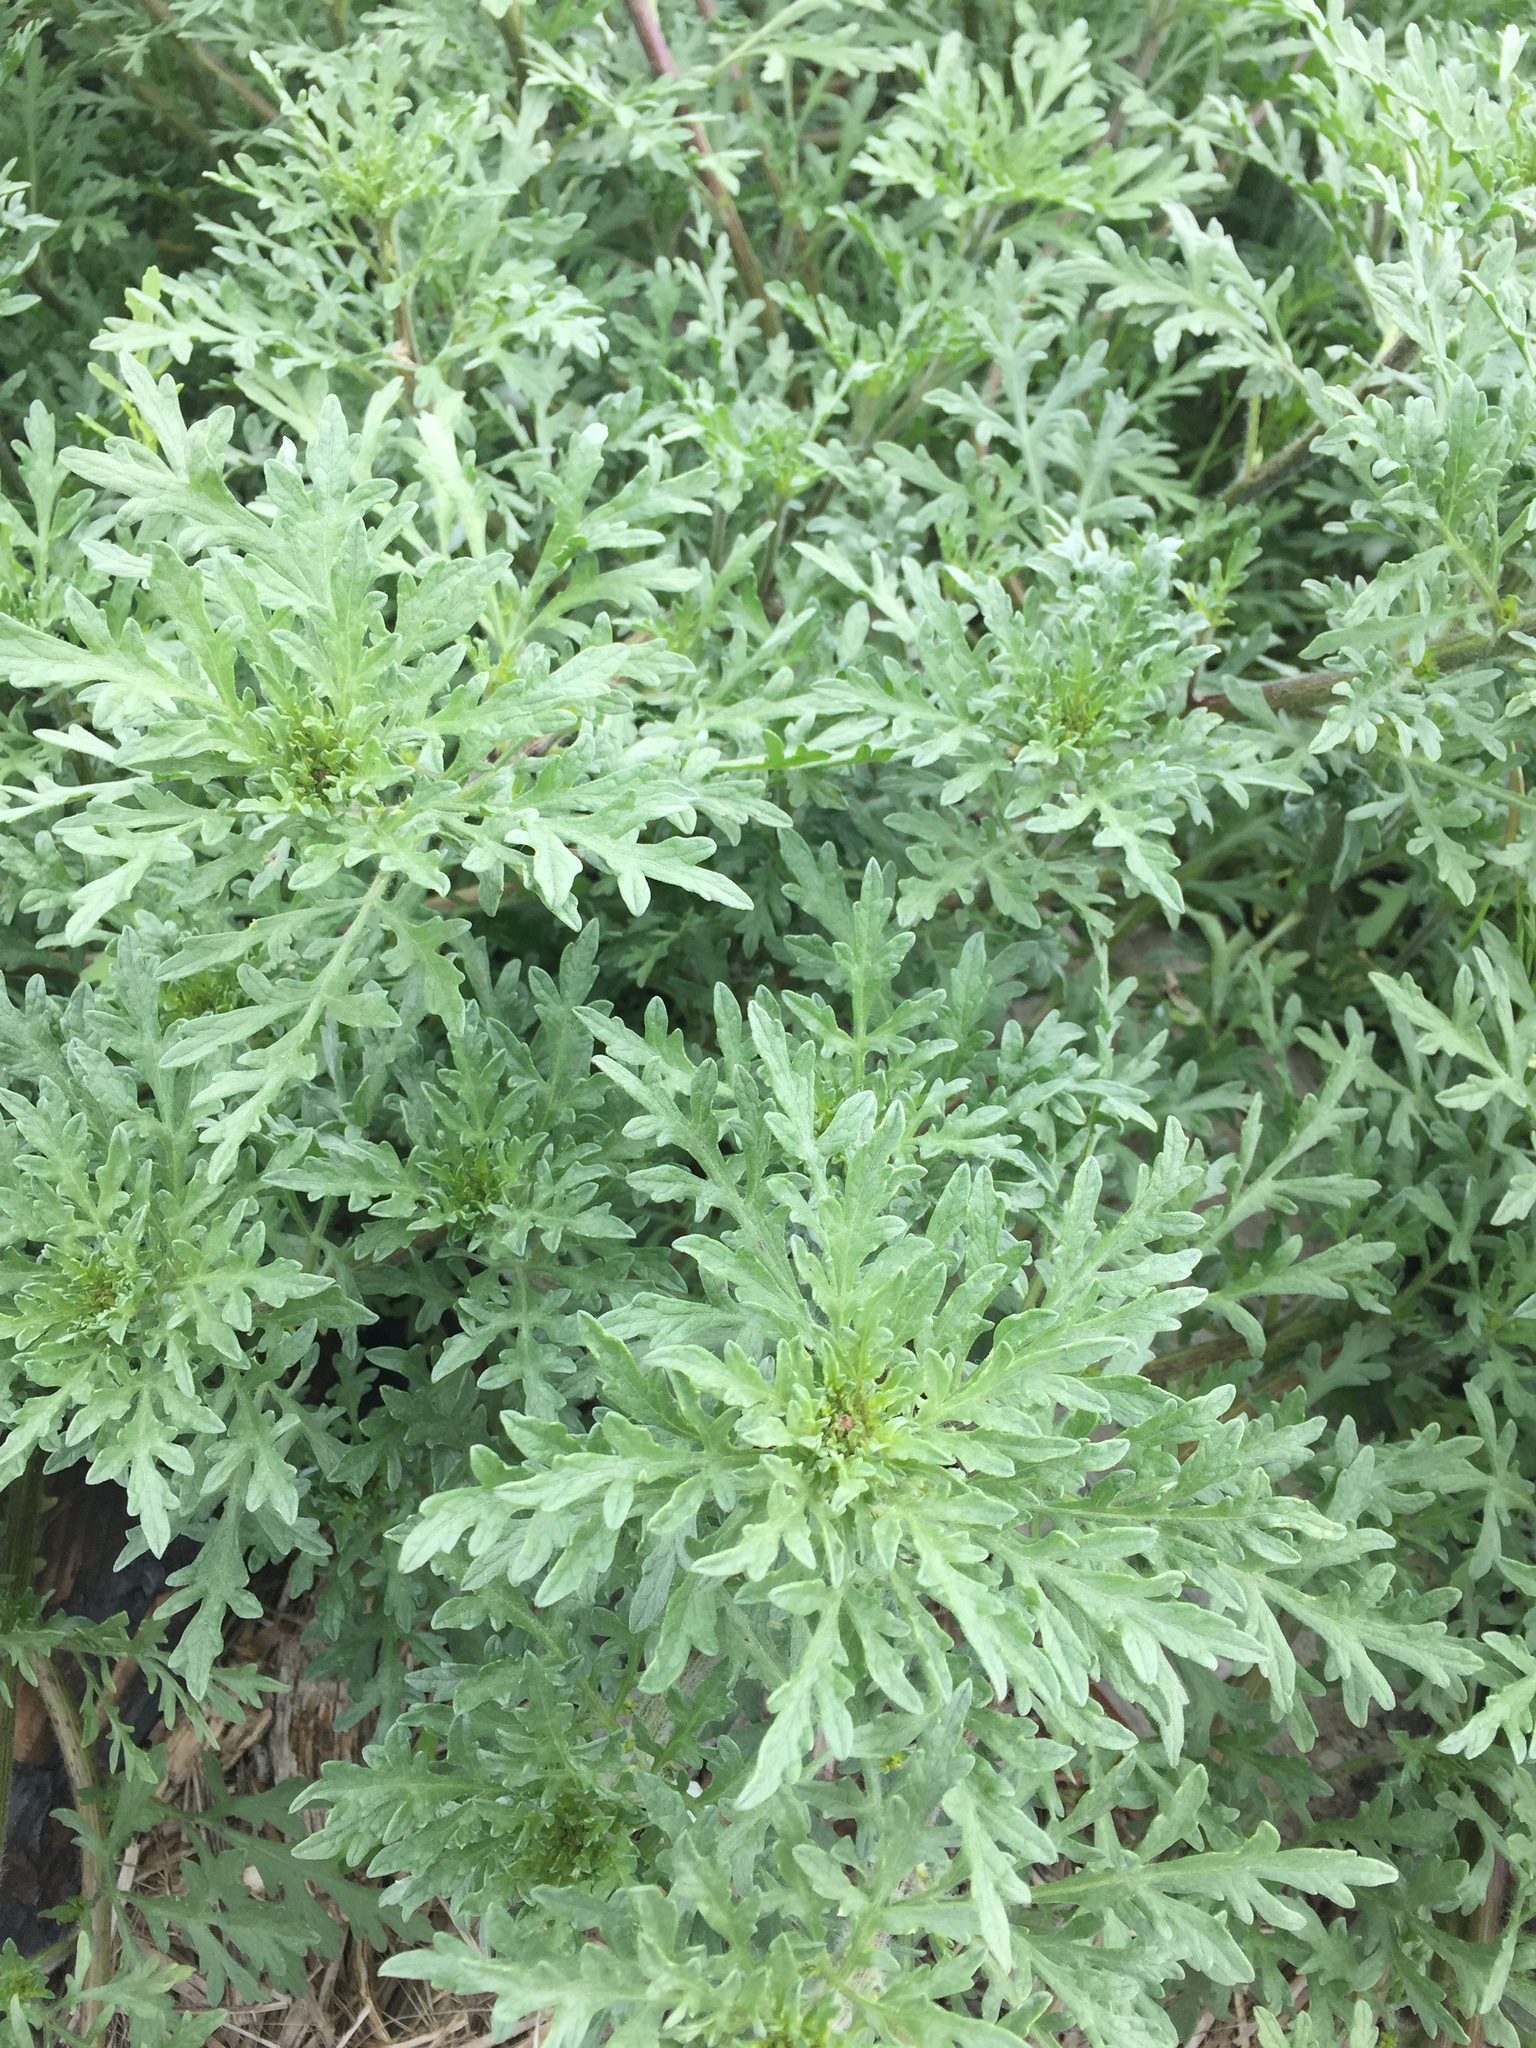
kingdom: Plantae
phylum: Tracheophyta
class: Magnoliopsida
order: Asterales
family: Asteraceae
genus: Ambrosia
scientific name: Ambrosia chamissonis
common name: Beachbur
